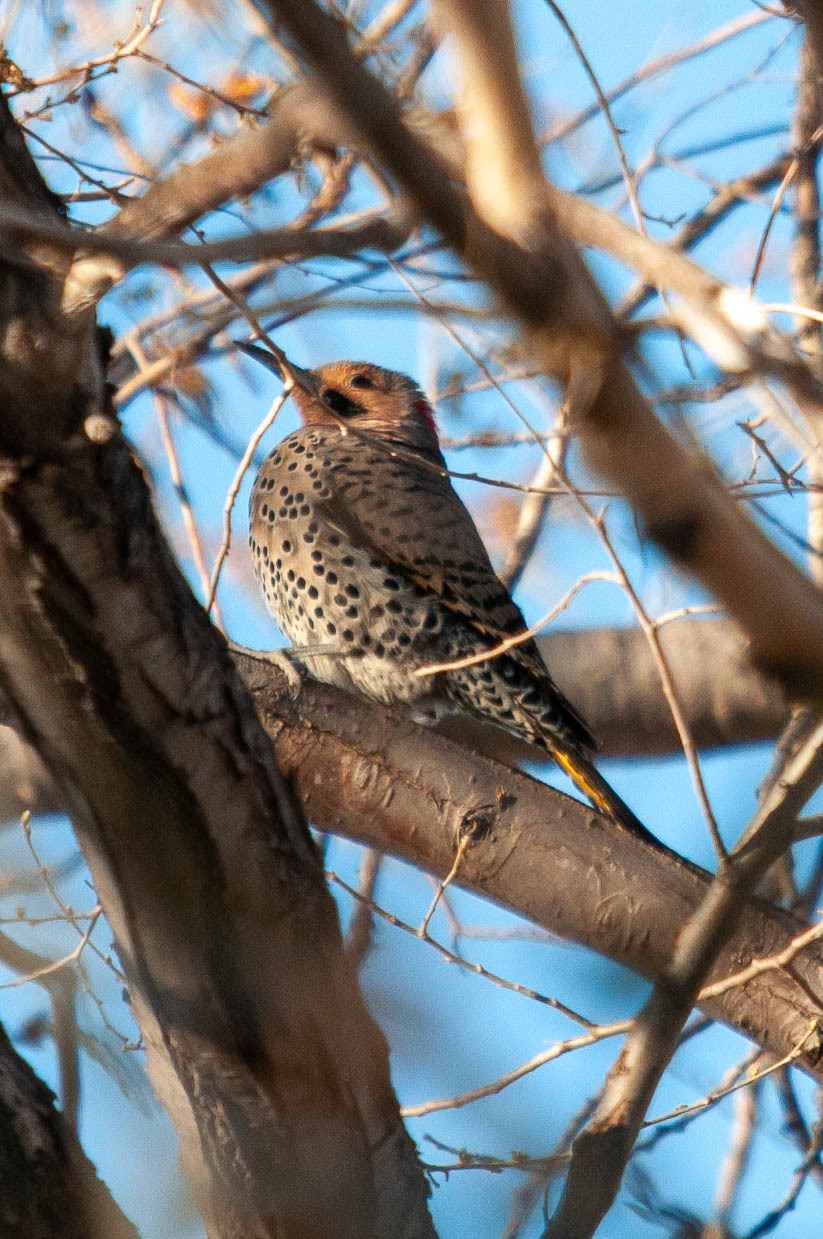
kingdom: Animalia
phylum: Chordata
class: Aves
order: Piciformes
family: Picidae
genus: Colaptes
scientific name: Colaptes auratus
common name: Northern flicker
